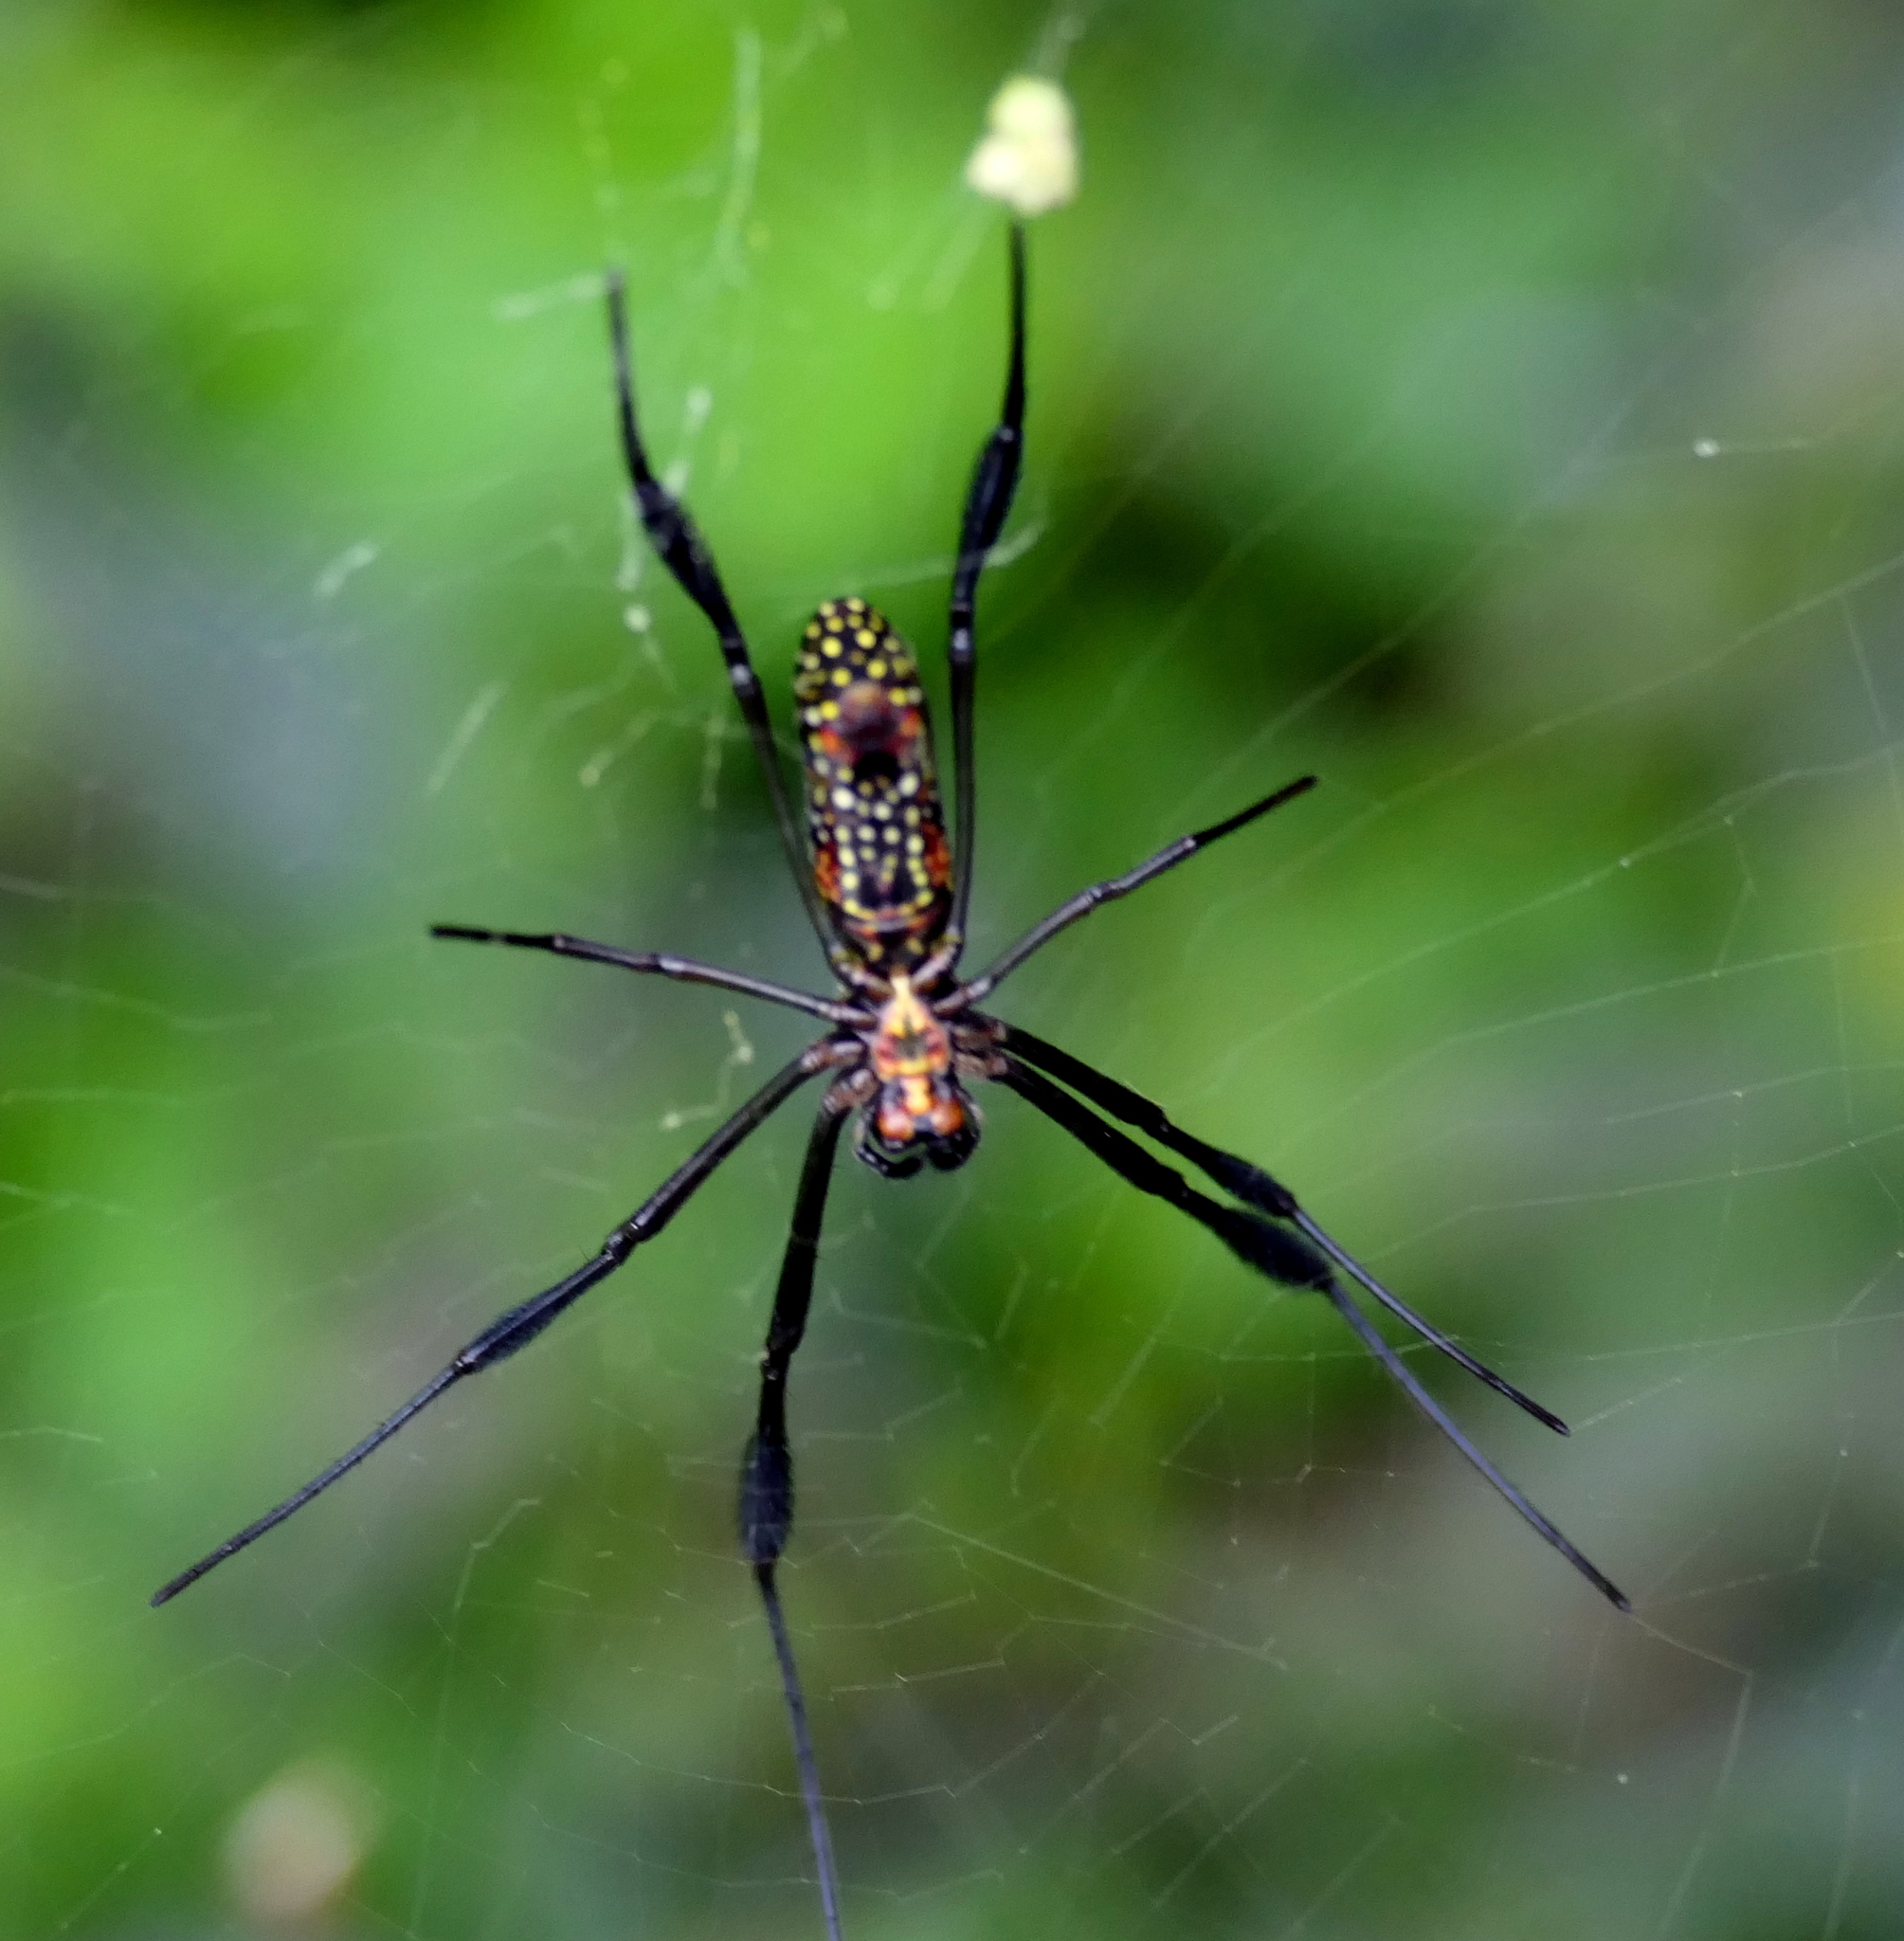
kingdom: Animalia
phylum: Arthropoda
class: Arachnida
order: Araneae
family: Araneidae
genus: Trichonephila
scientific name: Trichonephila clavipes
